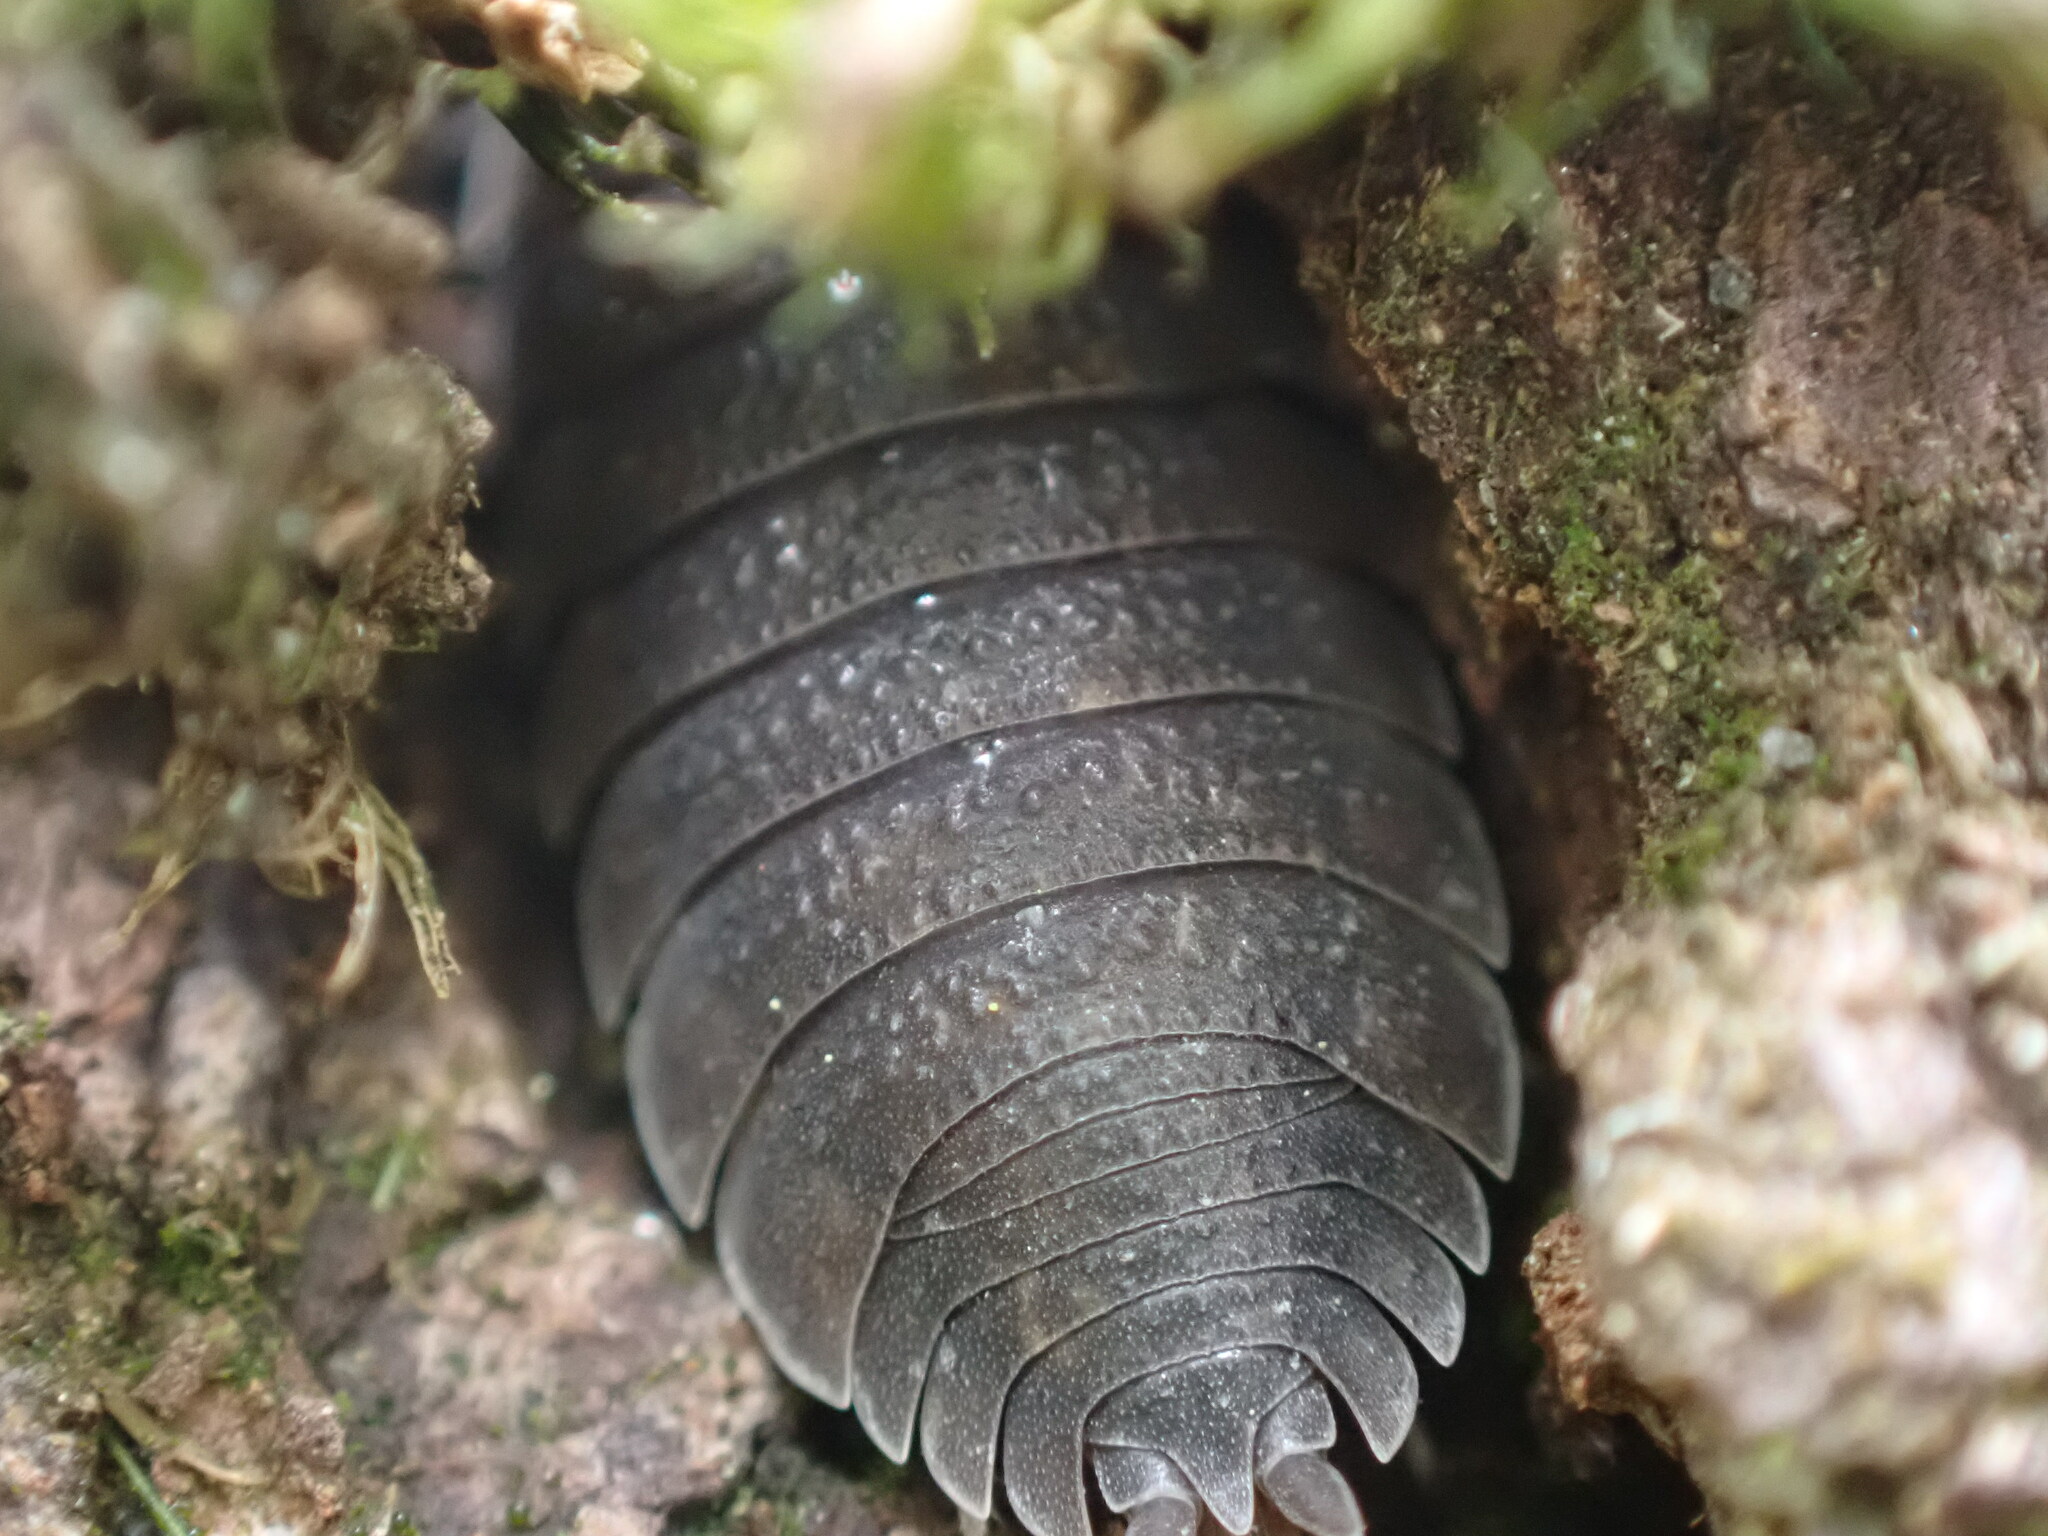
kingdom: Animalia
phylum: Arthropoda
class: Malacostraca
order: Isopoda
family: Porcellionidae
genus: Porcellio
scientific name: Porcellio scaber
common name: Common rough woodlouse
